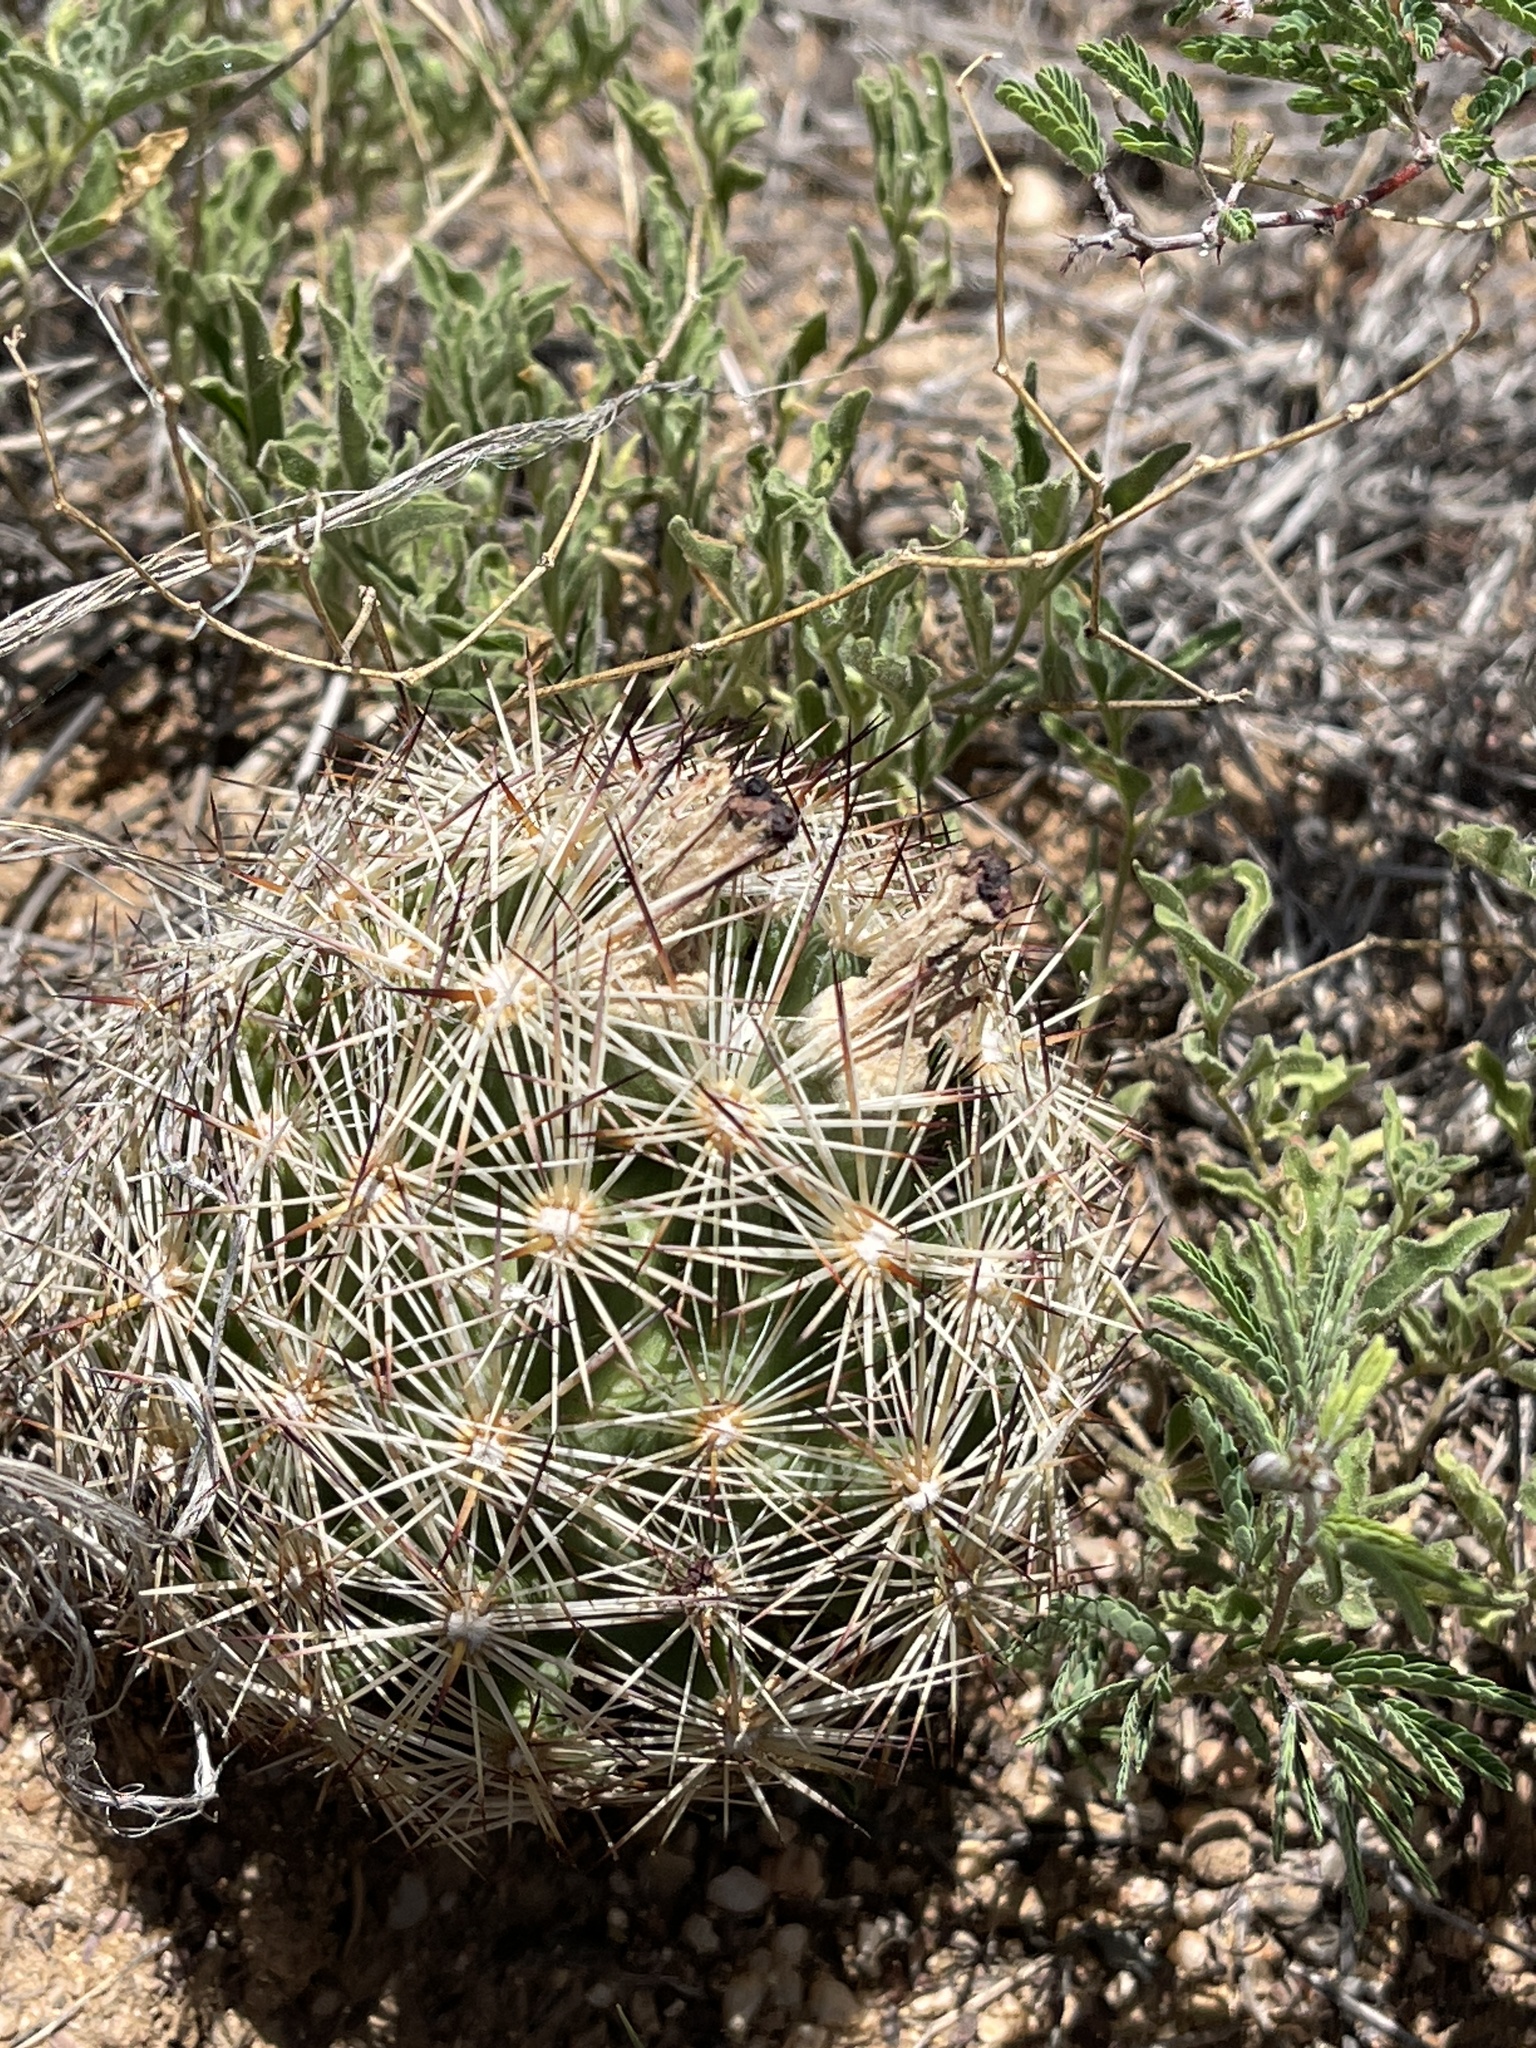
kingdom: Plantae
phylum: Tracheophyta
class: Magnoliopsida
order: Caryophyllales
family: Cactaceae
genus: Pelecyphora
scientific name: Pelecyphora vivipara
